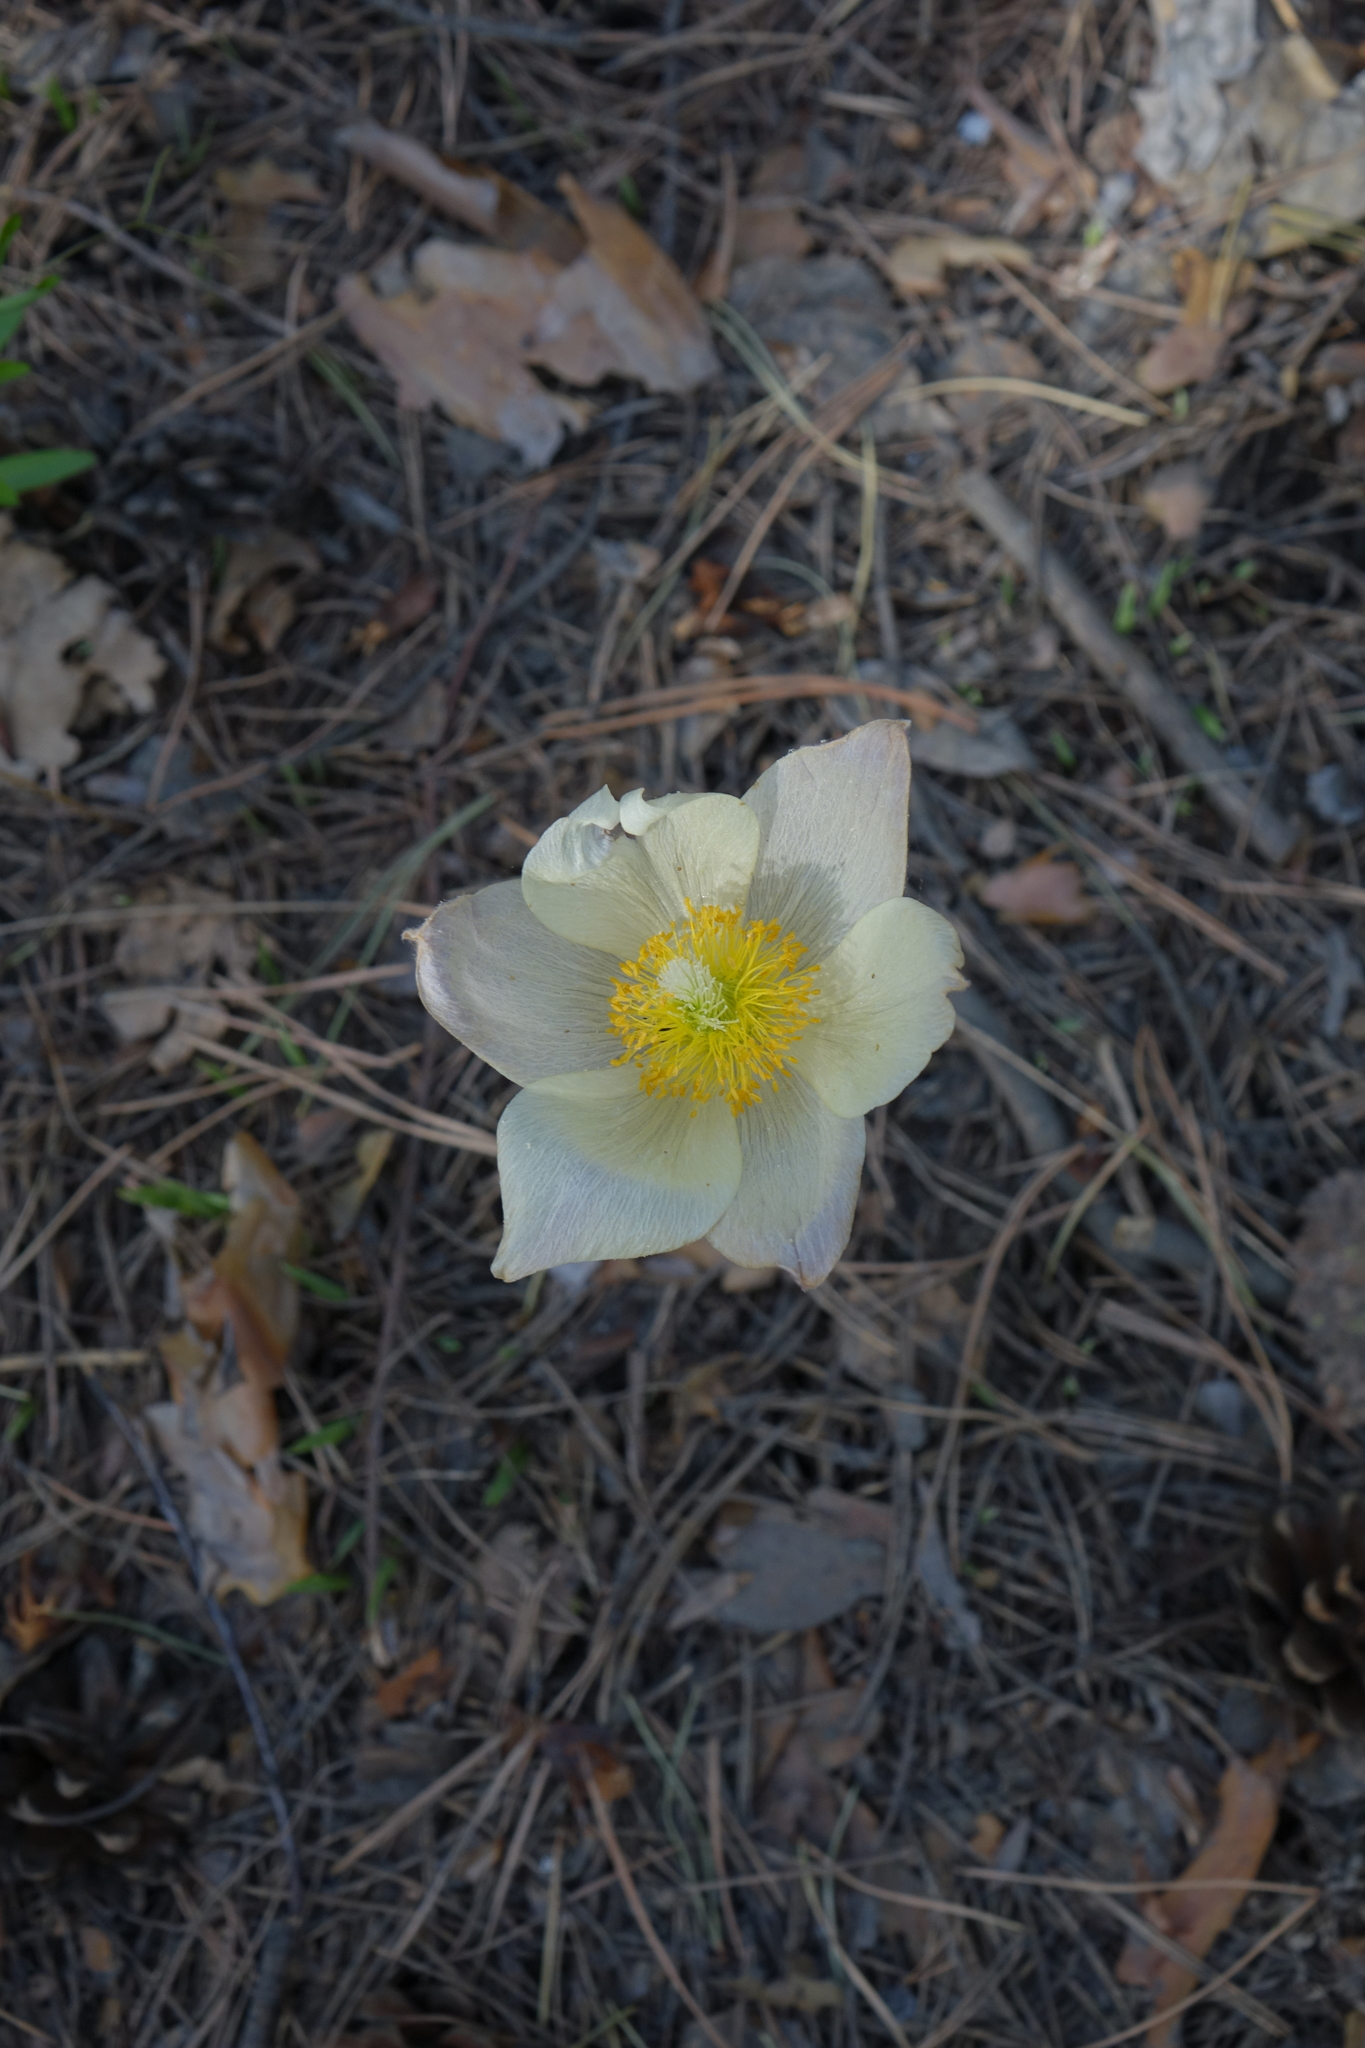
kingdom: Plantae
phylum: Tracheophyta
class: Magnoliopsida
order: Ranunculales
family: Ranunculaceae
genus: Pulsatilla
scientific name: Pulsatilla patens
